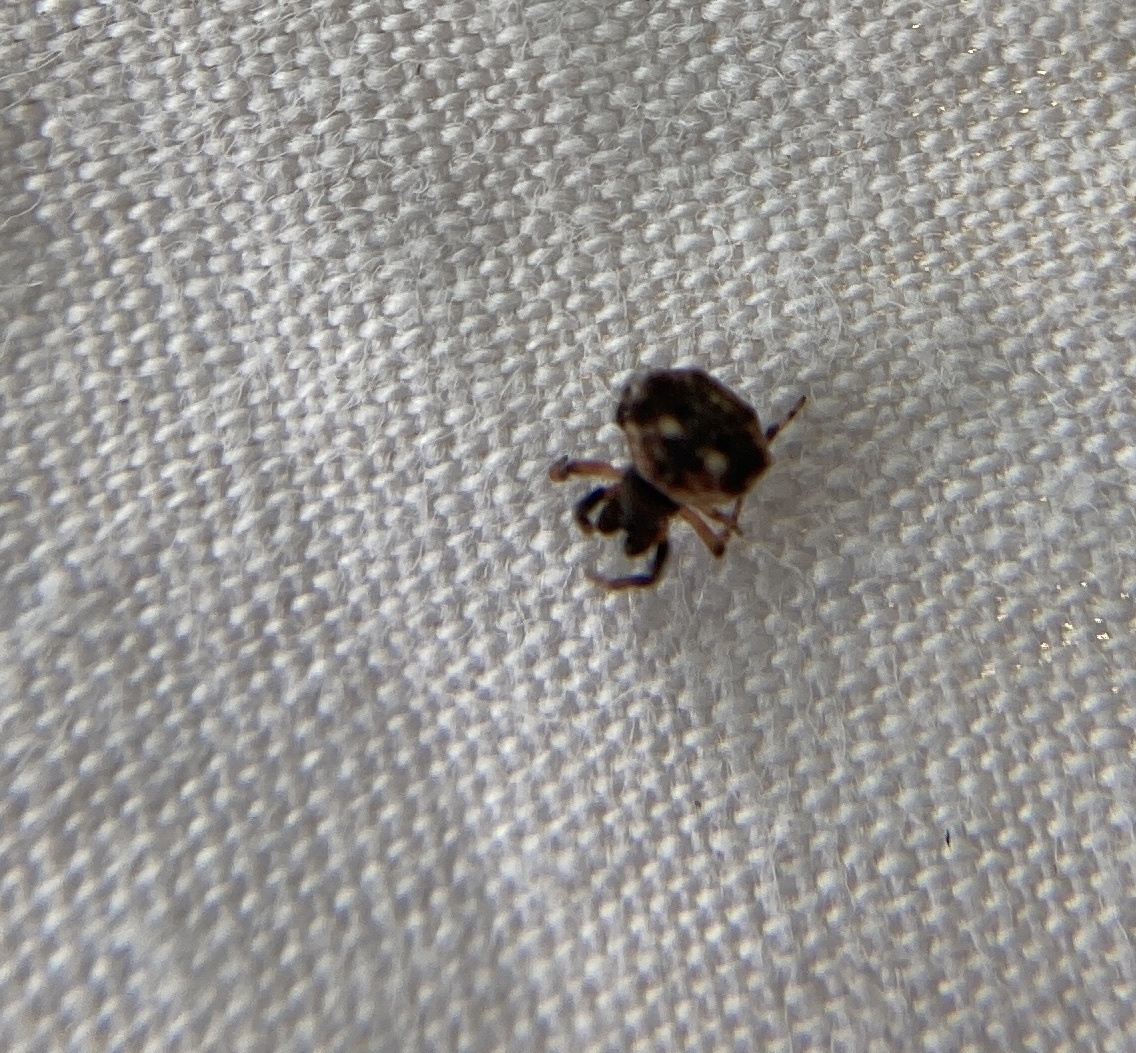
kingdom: Animalia
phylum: Arthropoda
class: Arachnida
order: Araneae
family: Araneidae
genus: Thelacantha
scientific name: Thelacantha brevispina
